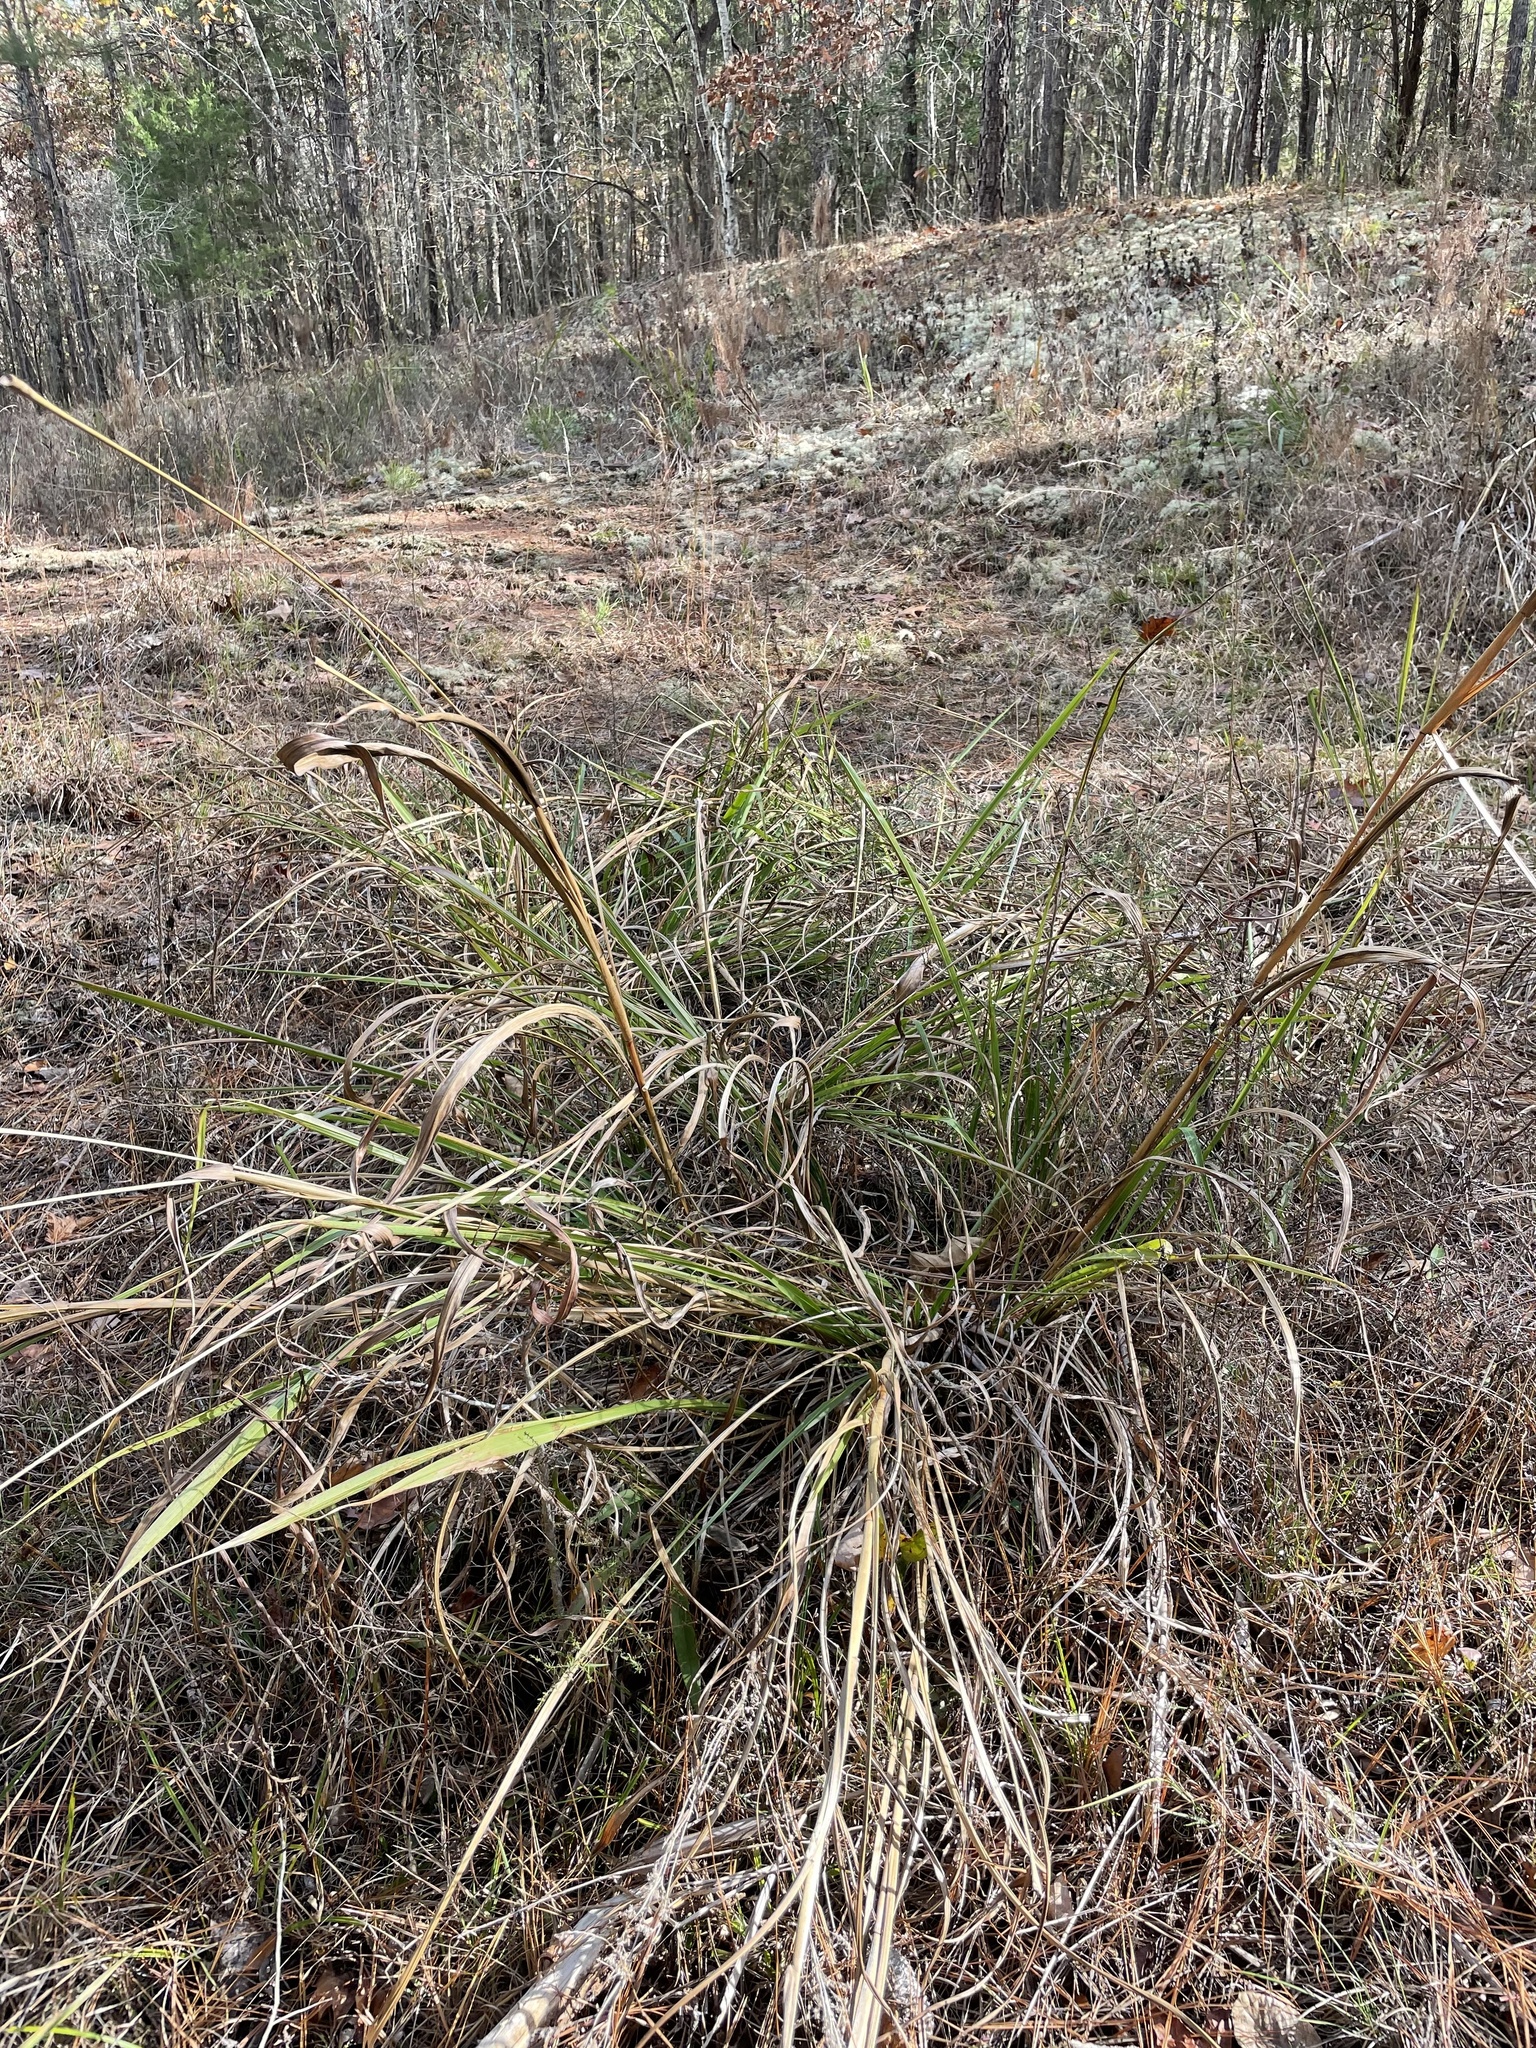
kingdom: Plantae
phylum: Tracheophyta
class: Liliopsida
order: Poales
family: Poaceae
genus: Tripsacum
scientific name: Tripsacum dactyloides
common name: Buffalo-grass
